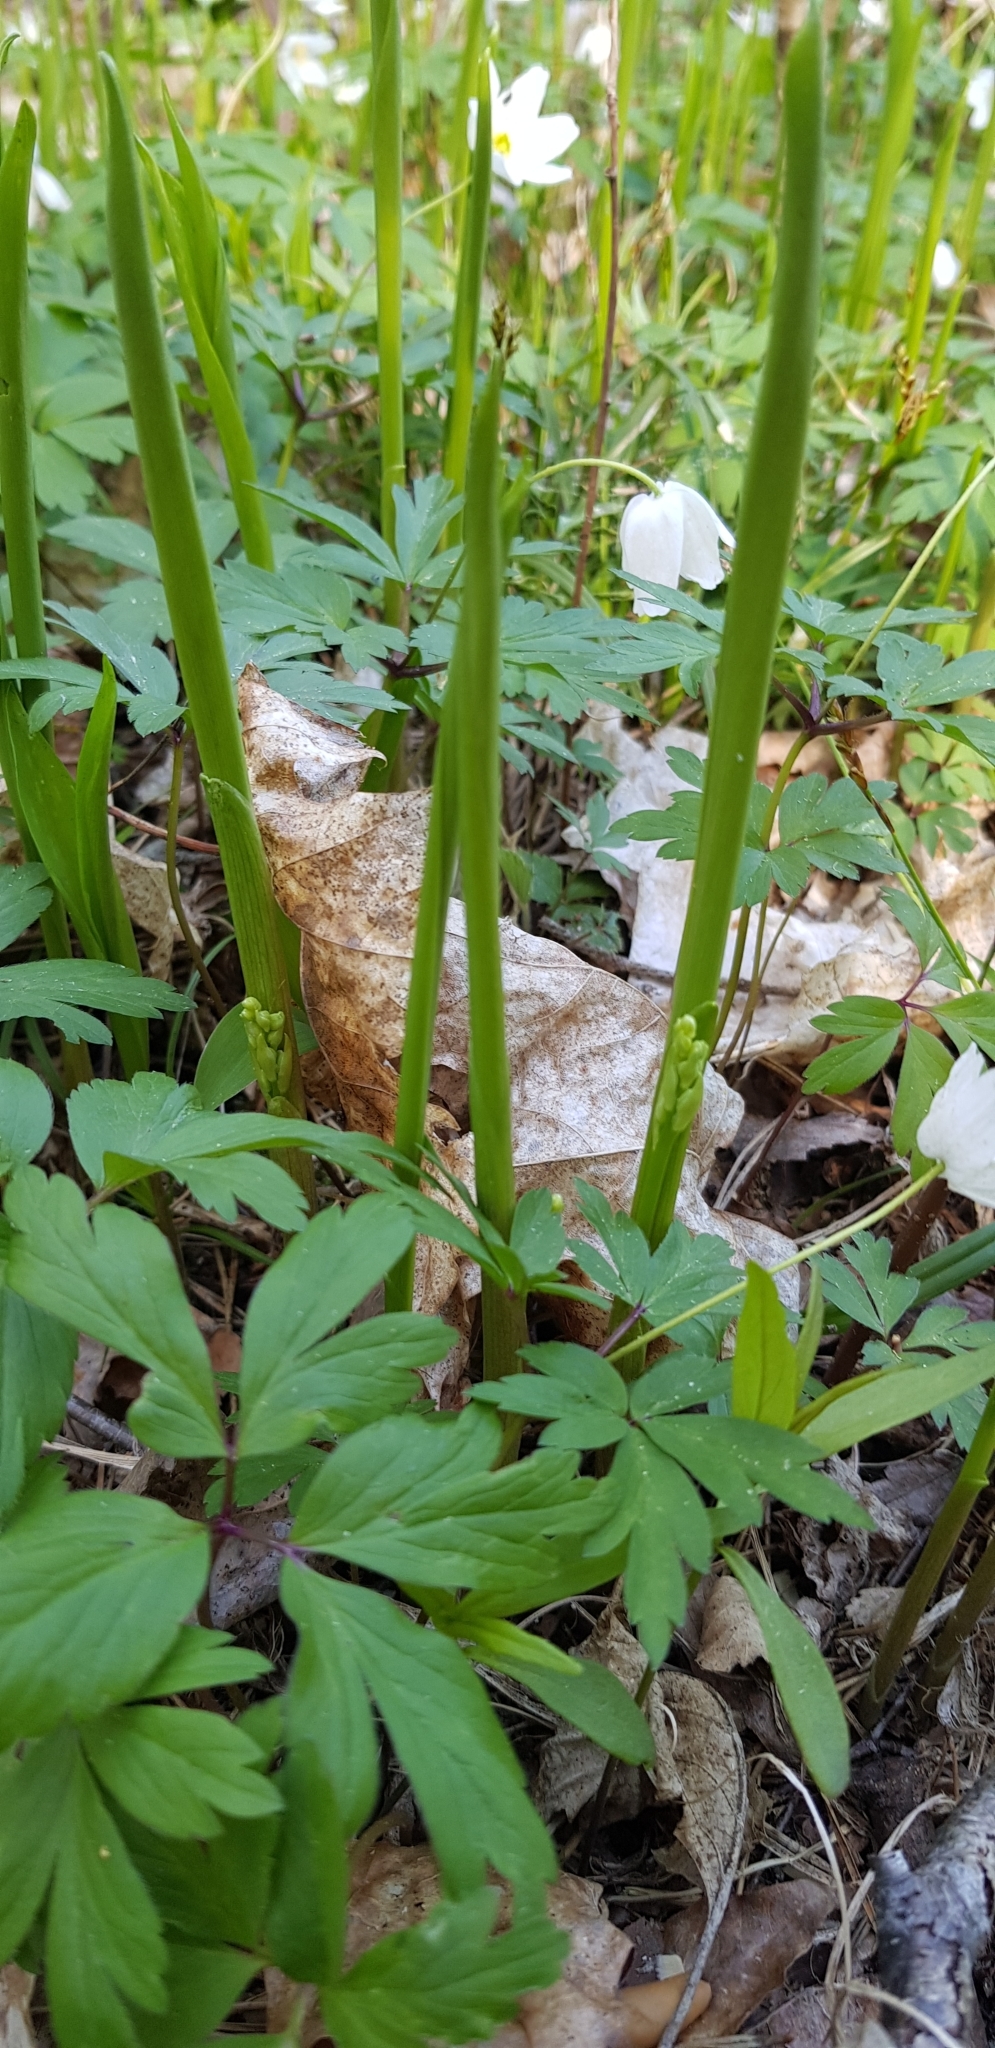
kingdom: Plantae
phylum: Tracheophyta
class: Liliopsida
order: Asparagales
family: Asparagaceae
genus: Convallaria
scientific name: Convallaria majalis
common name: Lily-of-the-valley
